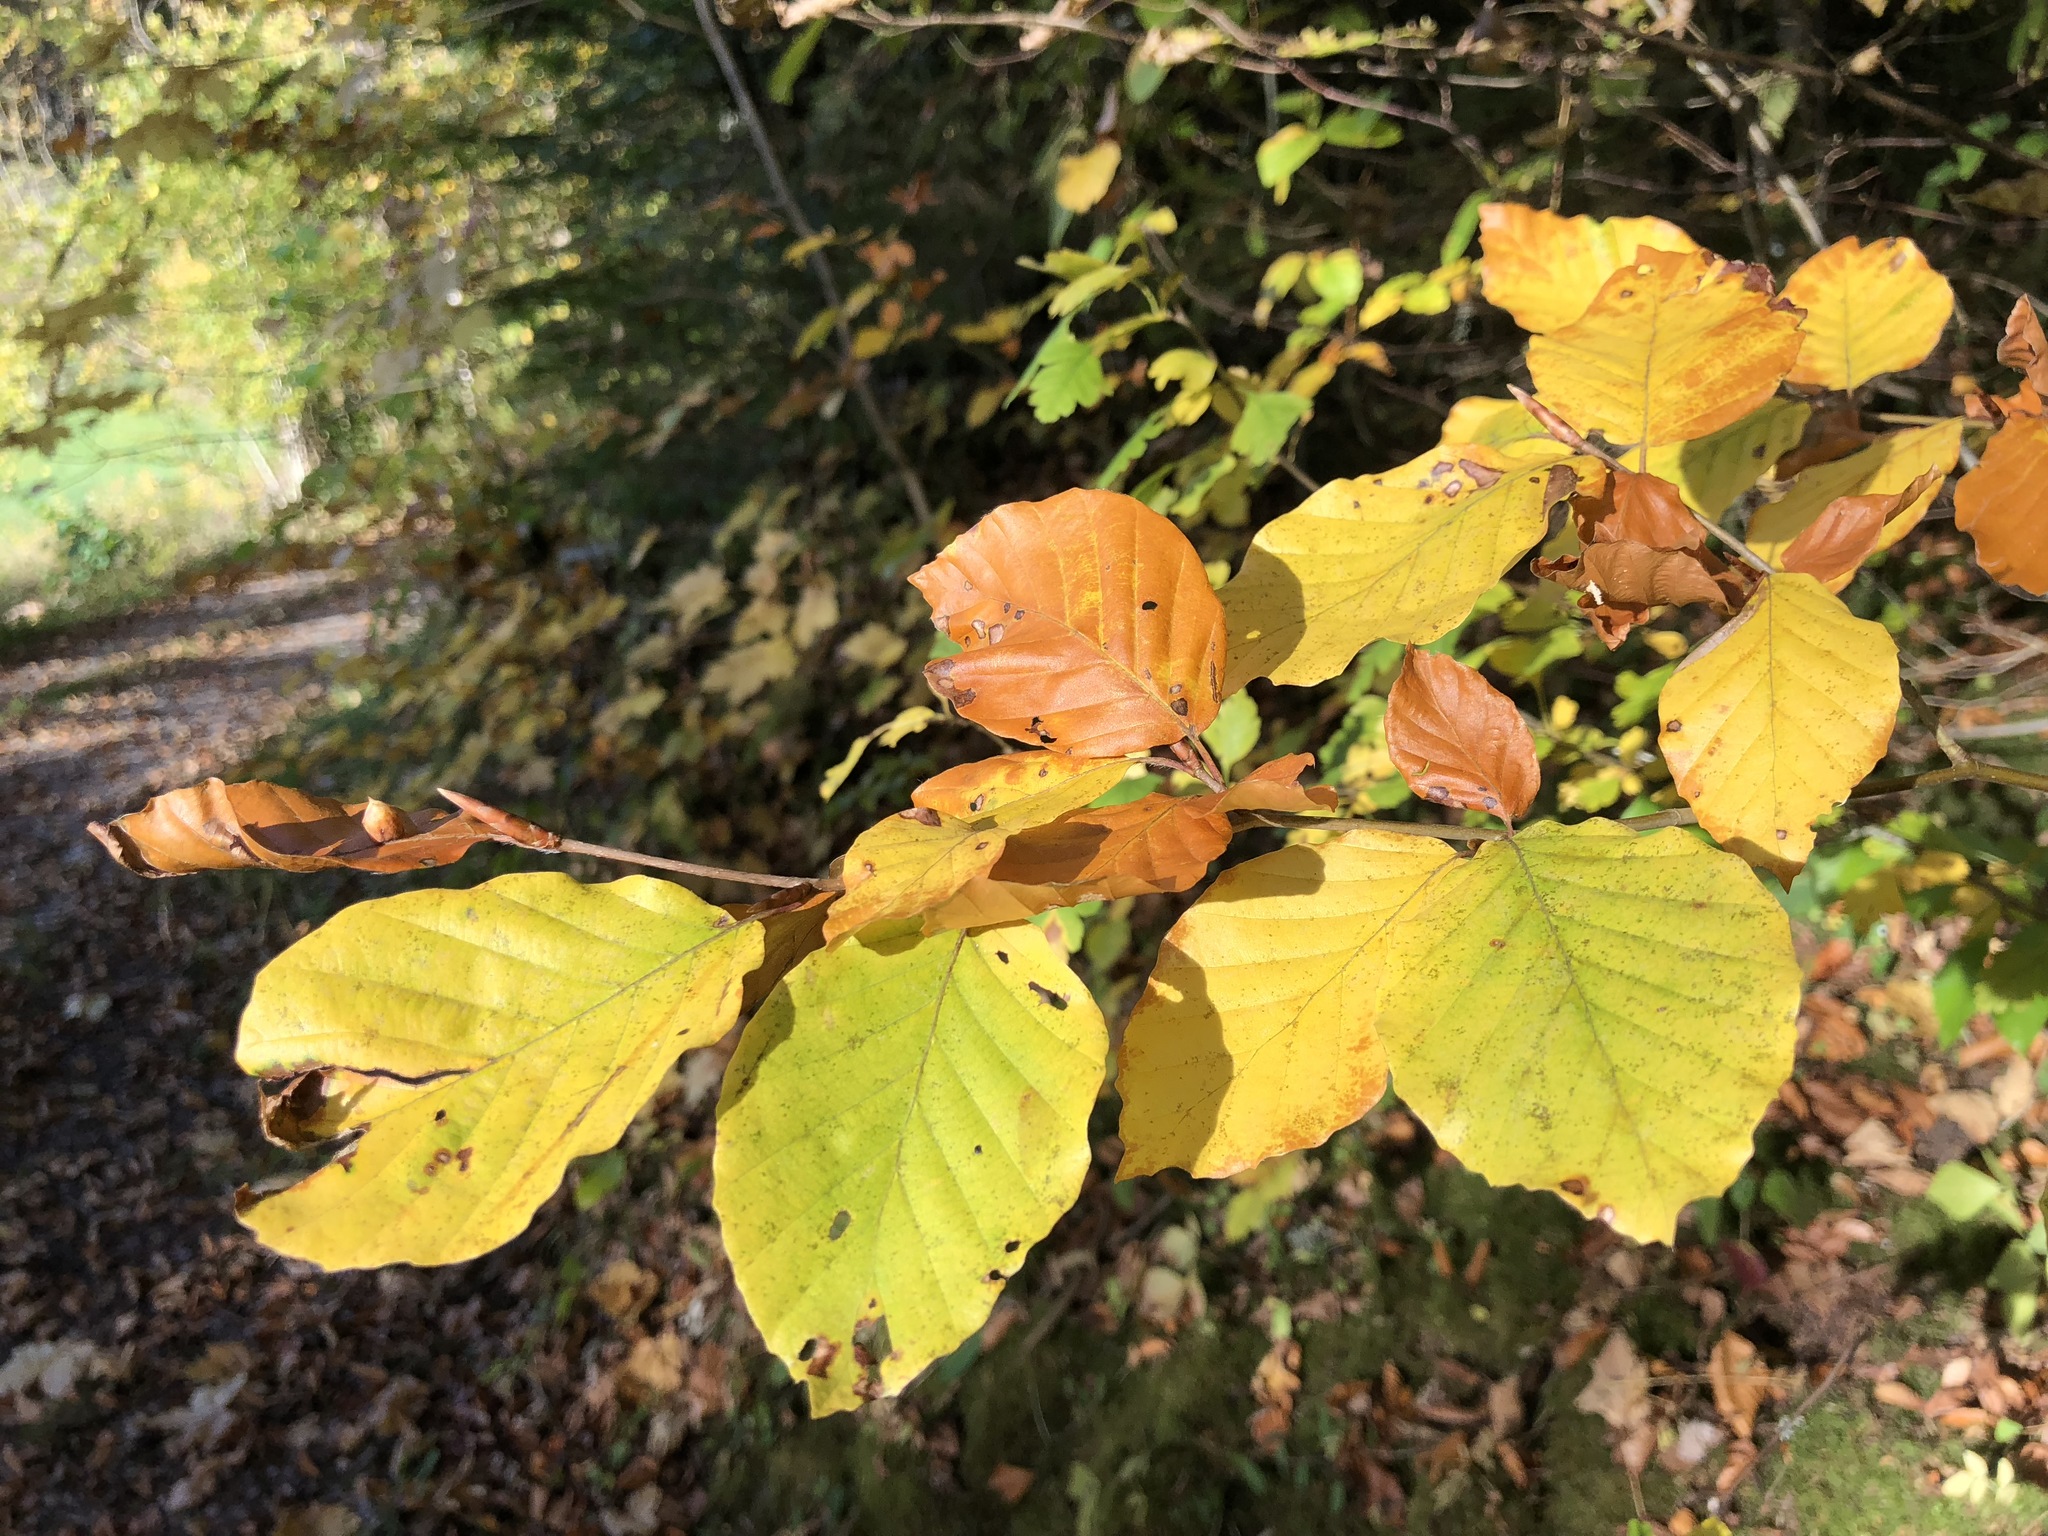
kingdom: Plantae
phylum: Tracheophyta
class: Magnoliopsida
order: Fagales
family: Fagaceae
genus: Fagus
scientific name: Fagus sylvatica
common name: Beech
